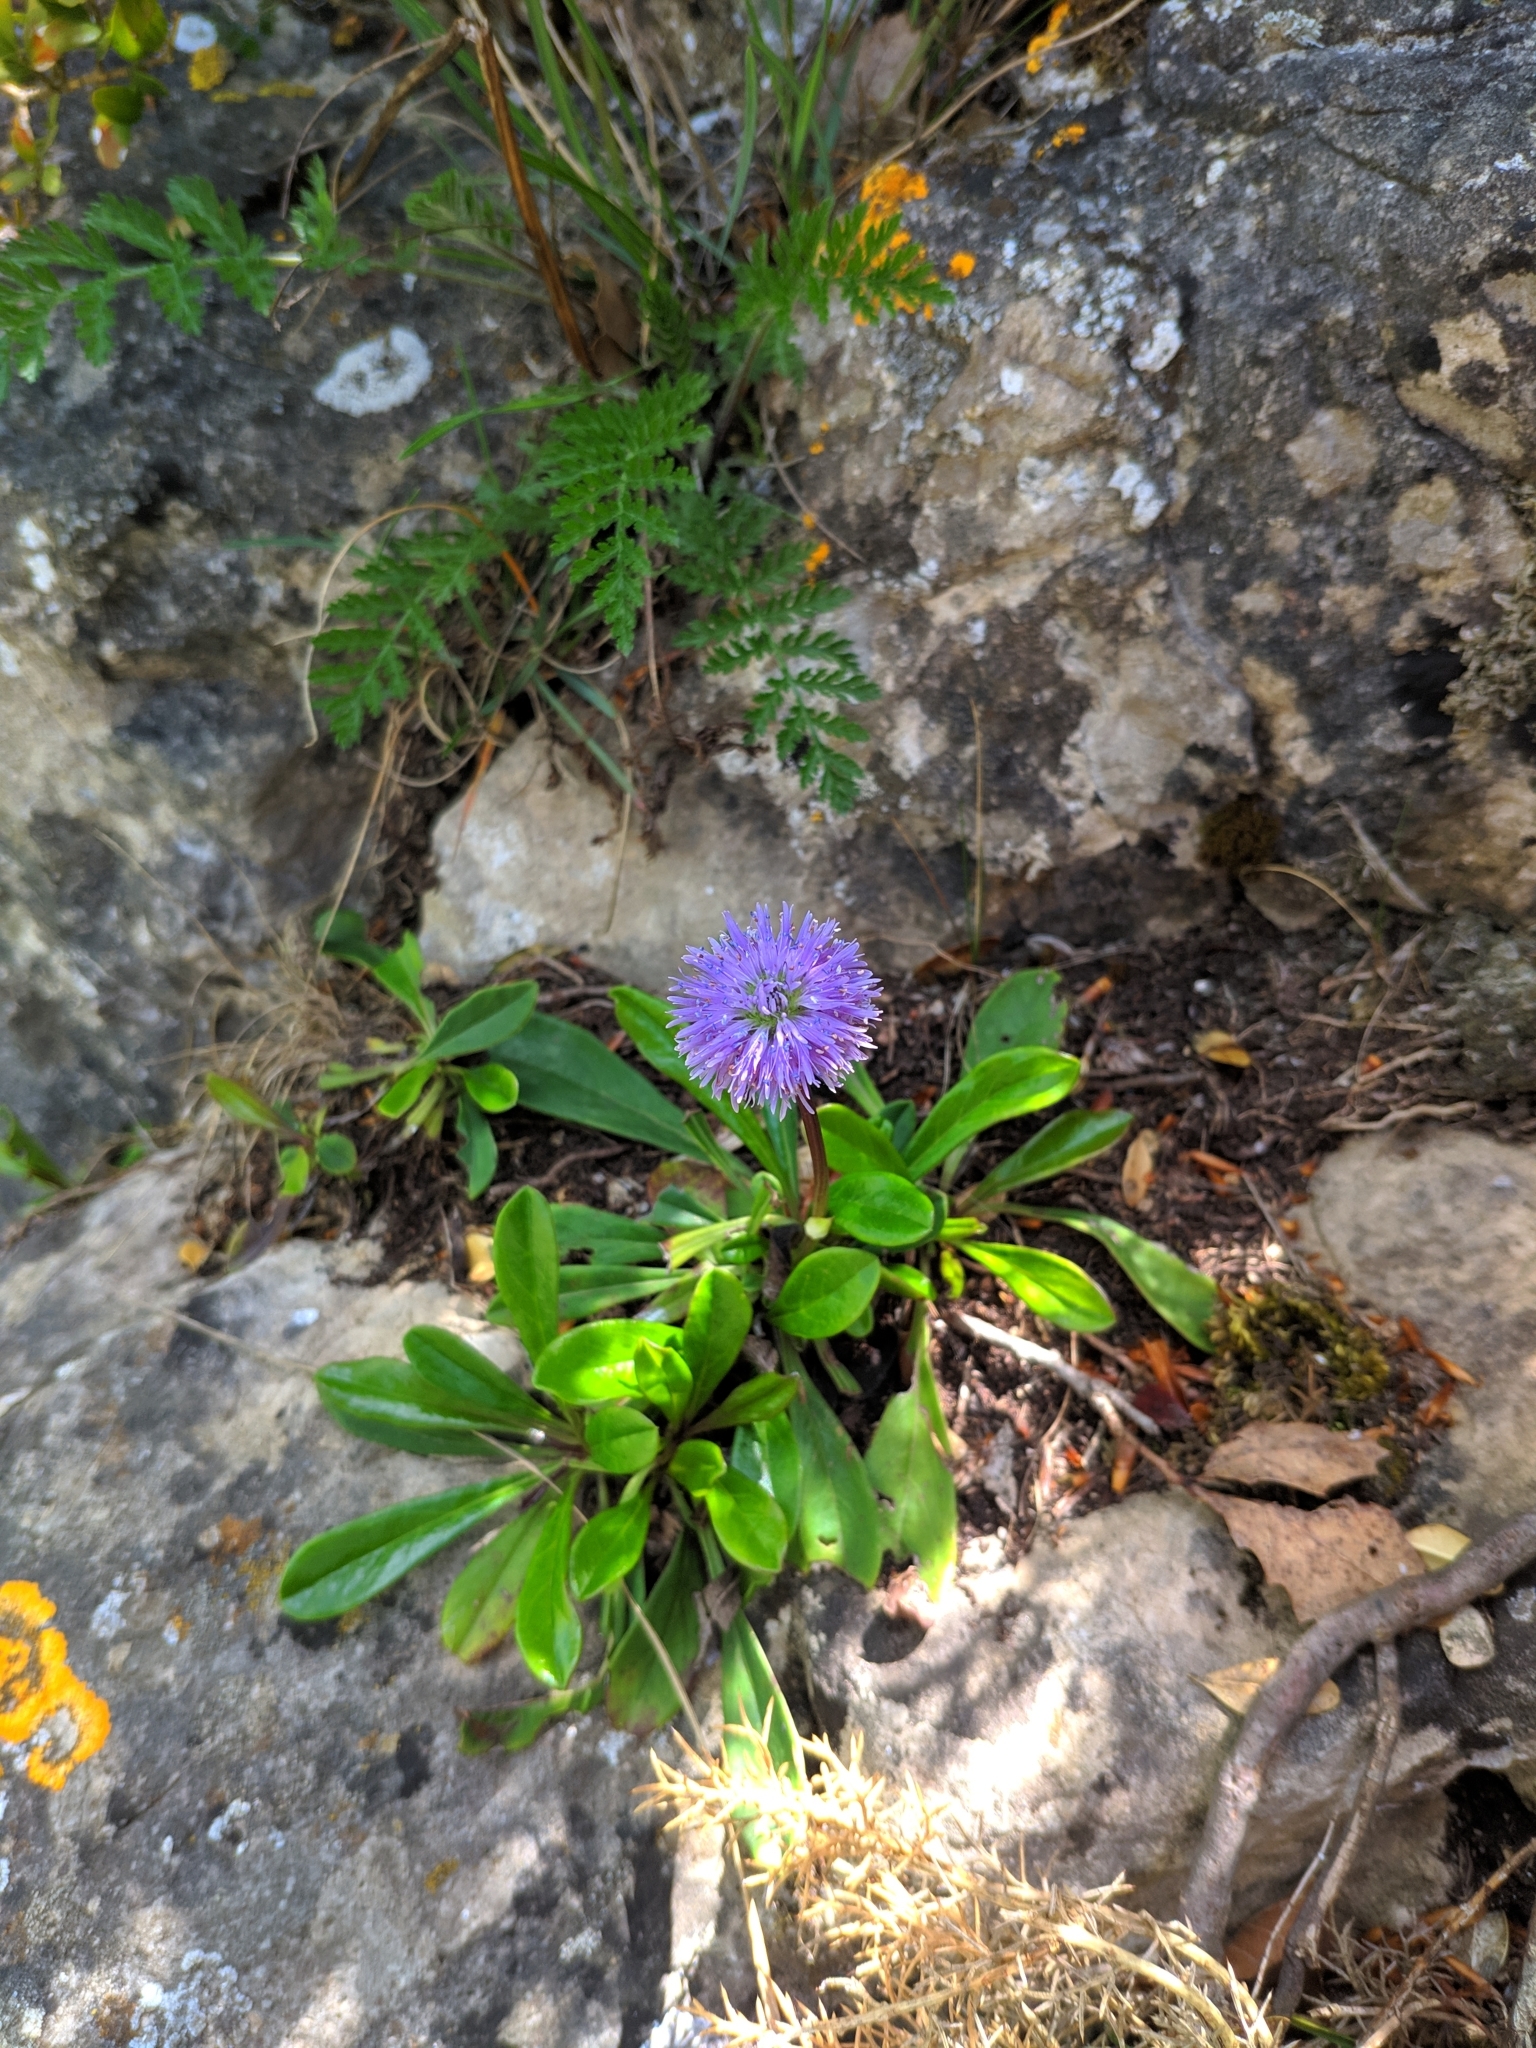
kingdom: Plantae
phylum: Tracheophyta
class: Magnoliopsida
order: Lamiales
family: Plantaginaceae
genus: Globularia
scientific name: Globularia nudicaulis
